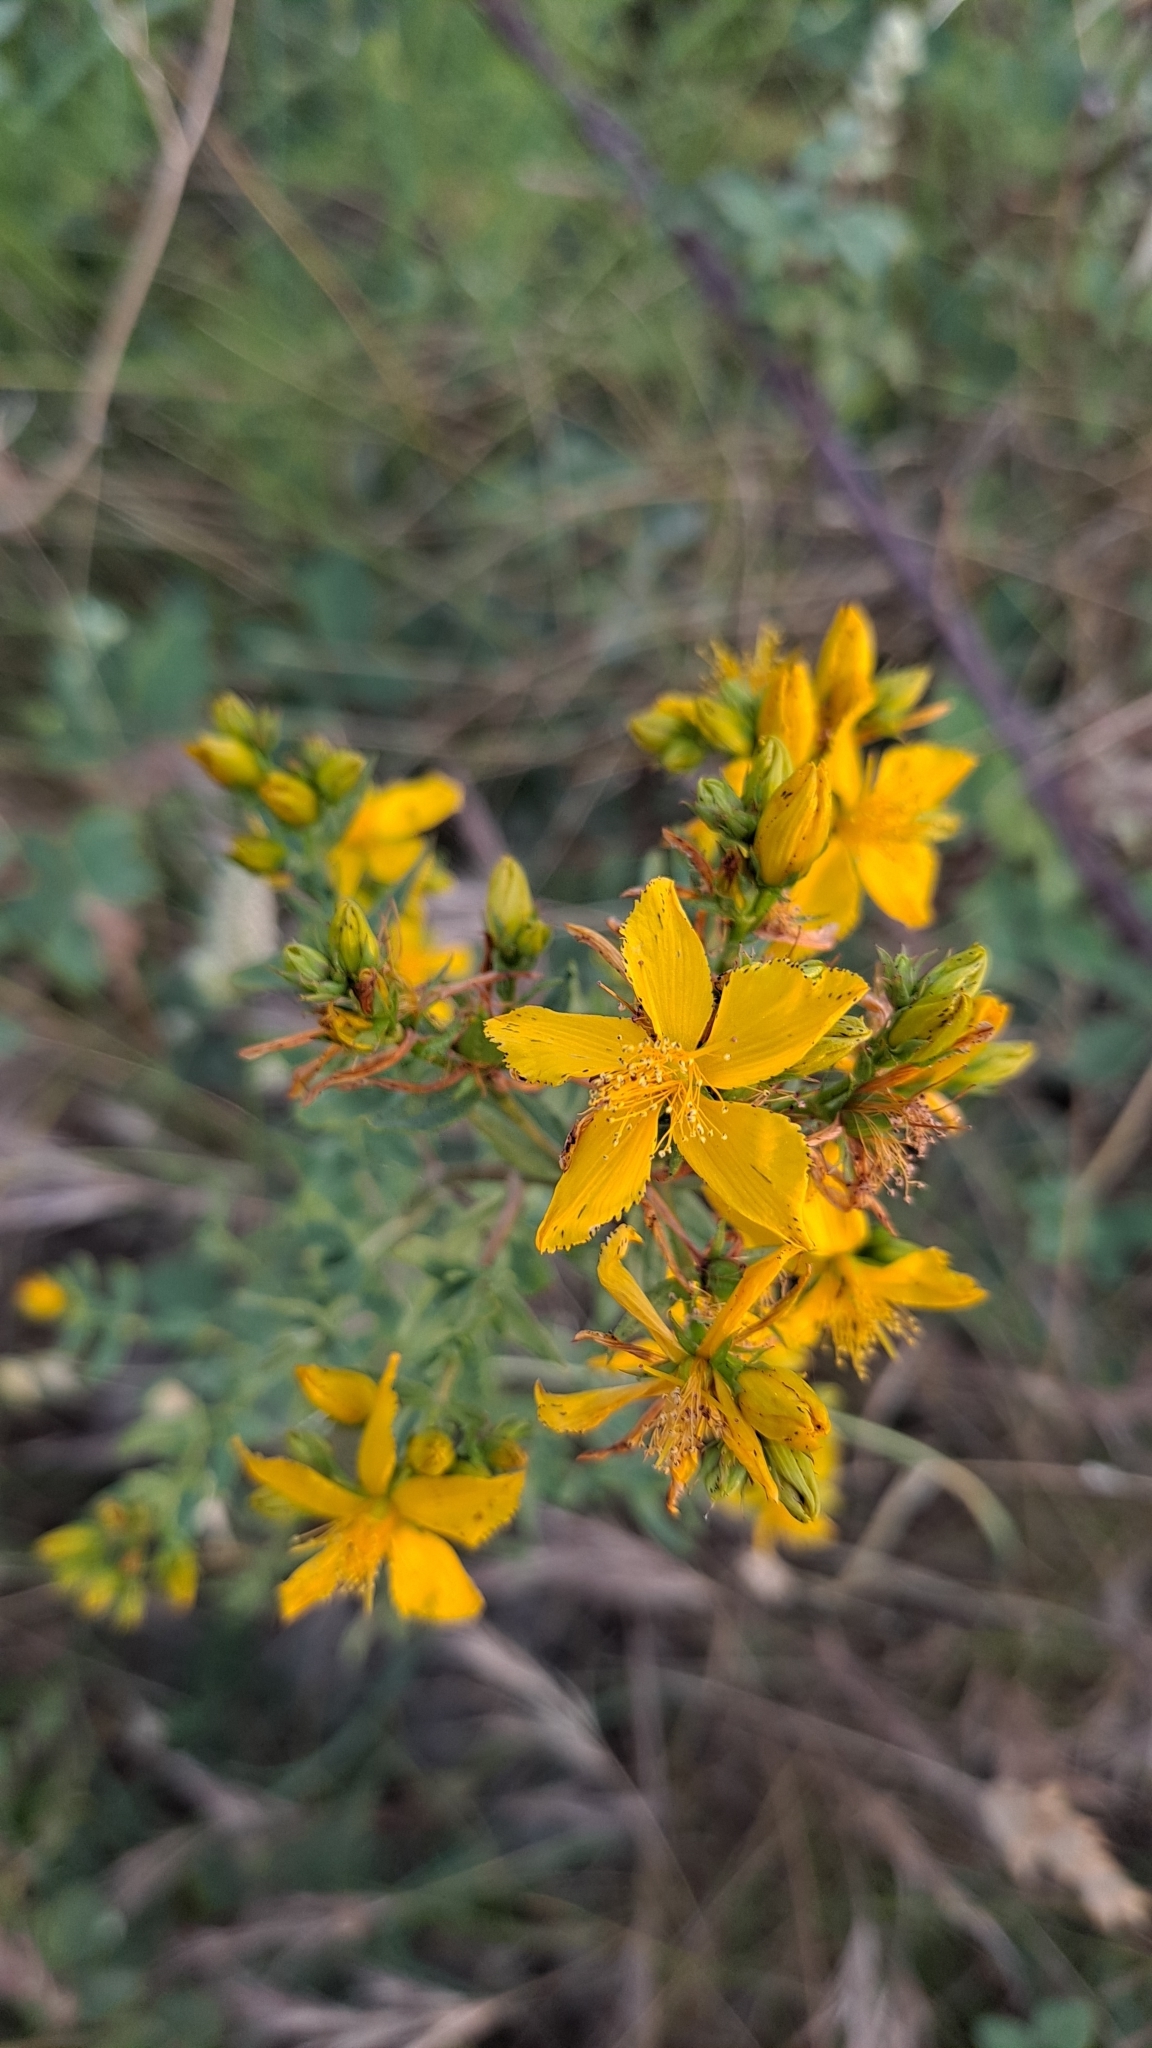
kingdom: Plantae
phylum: Tracheophyta
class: Magnoliopsida
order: Malpighiales
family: Hypericaceae
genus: Hypericum
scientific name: Hypericum perforatum
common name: Common st. johnswort
